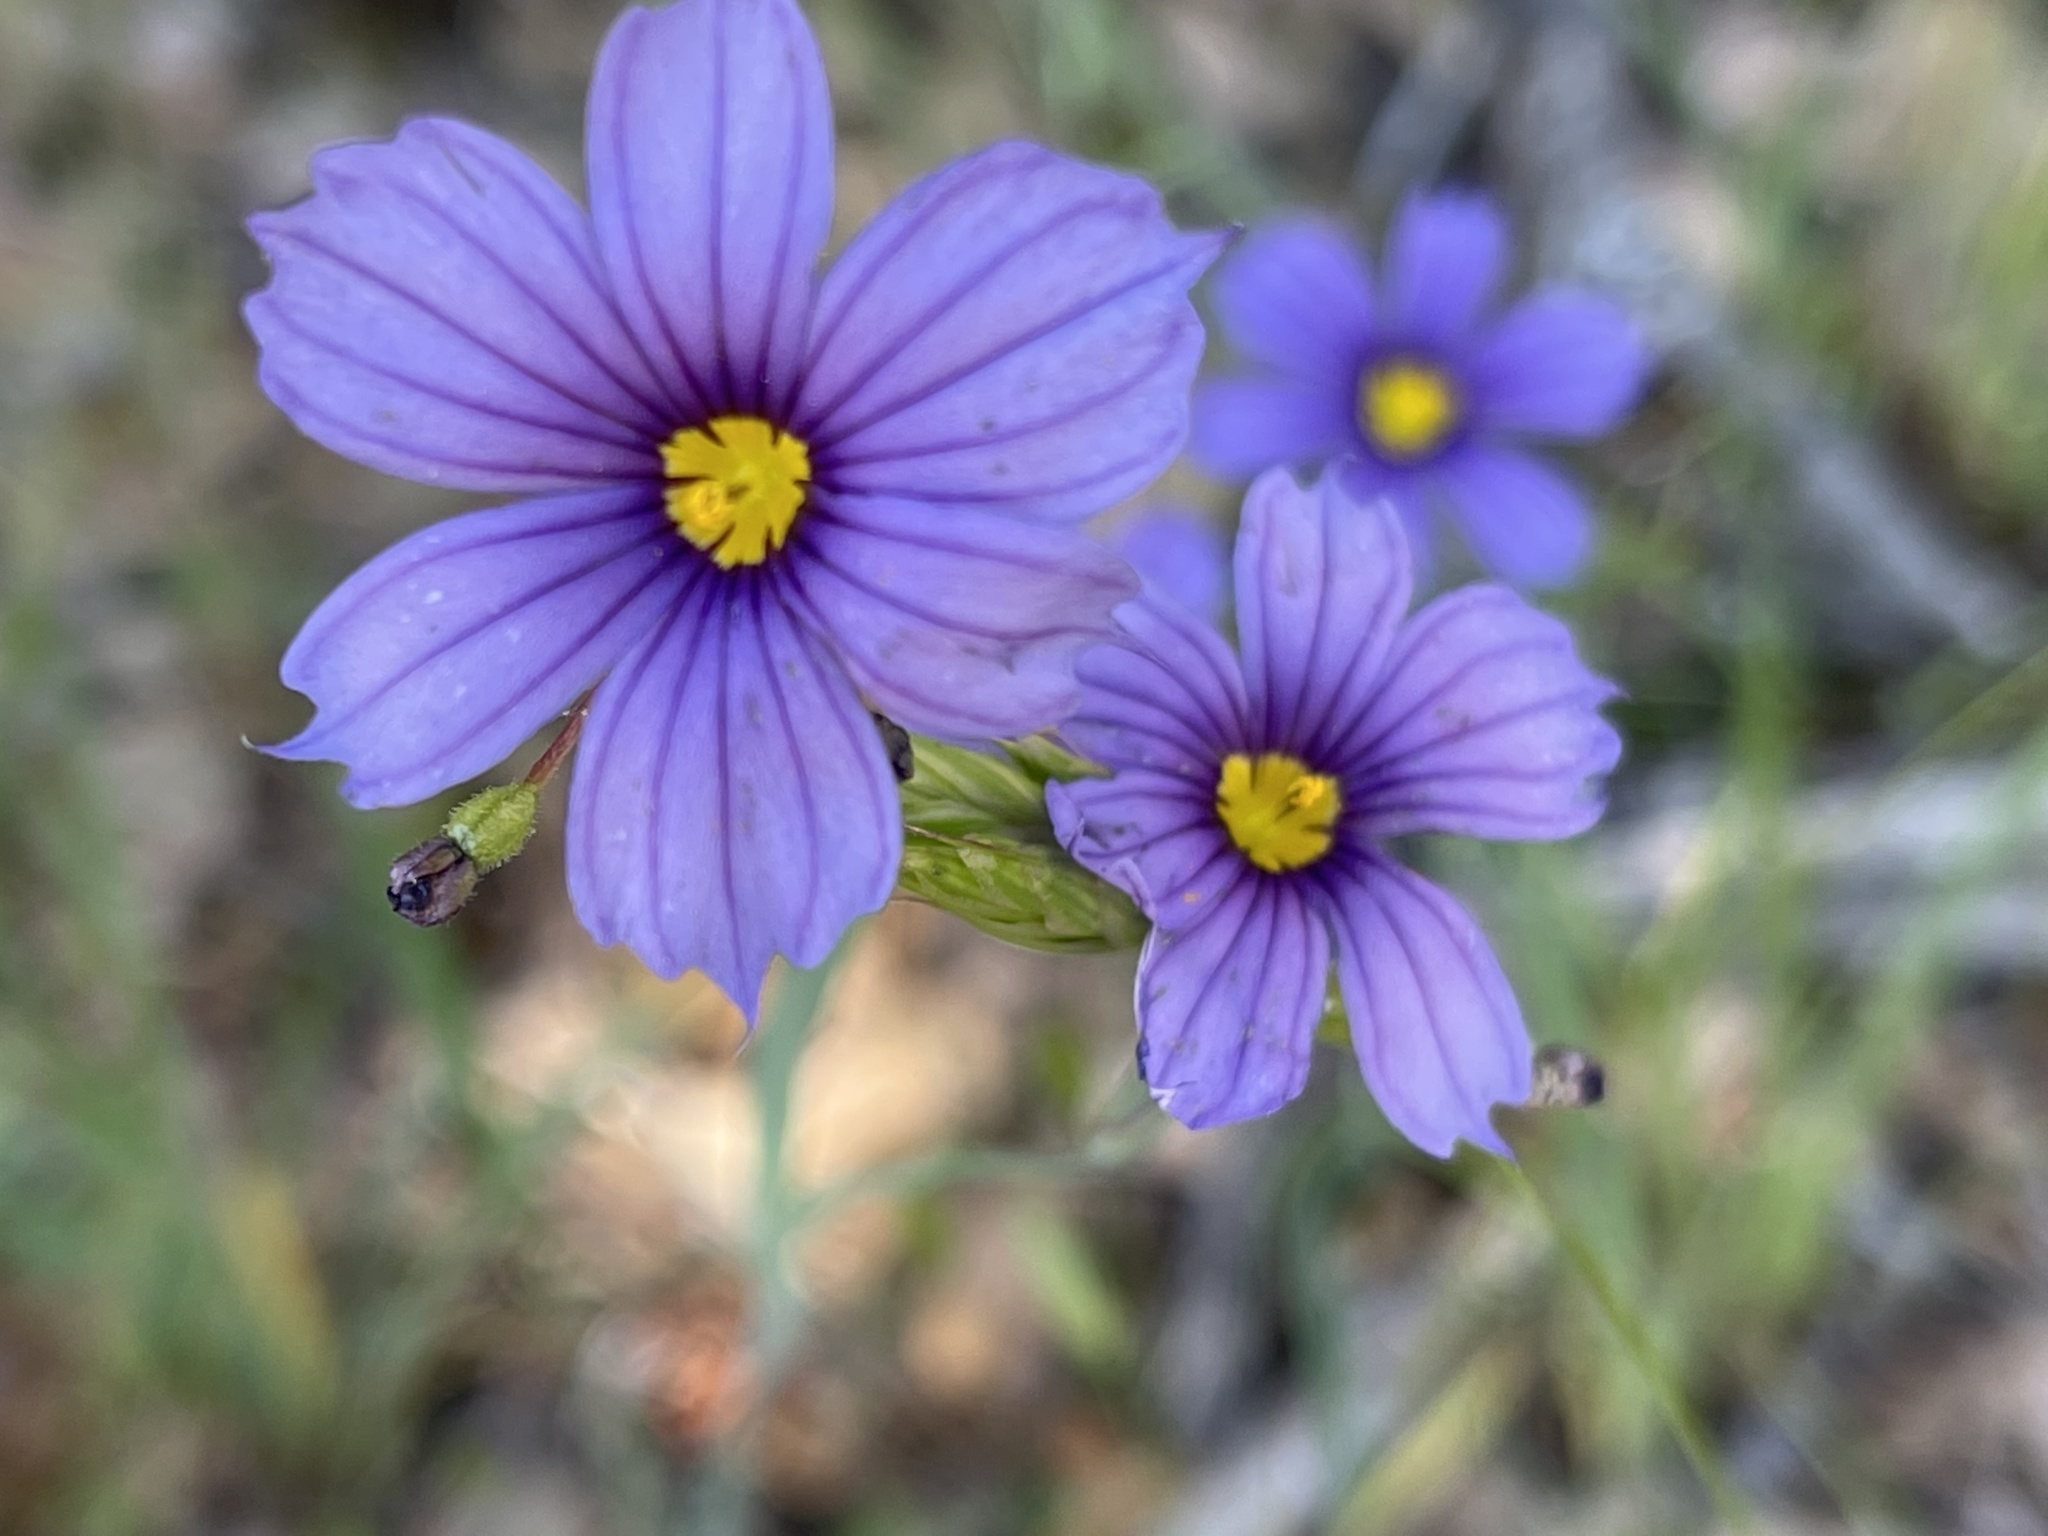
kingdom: Plantae
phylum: Tracheophyta
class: Liliopsida
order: Asparagales
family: Iridaceae
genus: Sisyrinchium
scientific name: Sisyrinchium bellum
